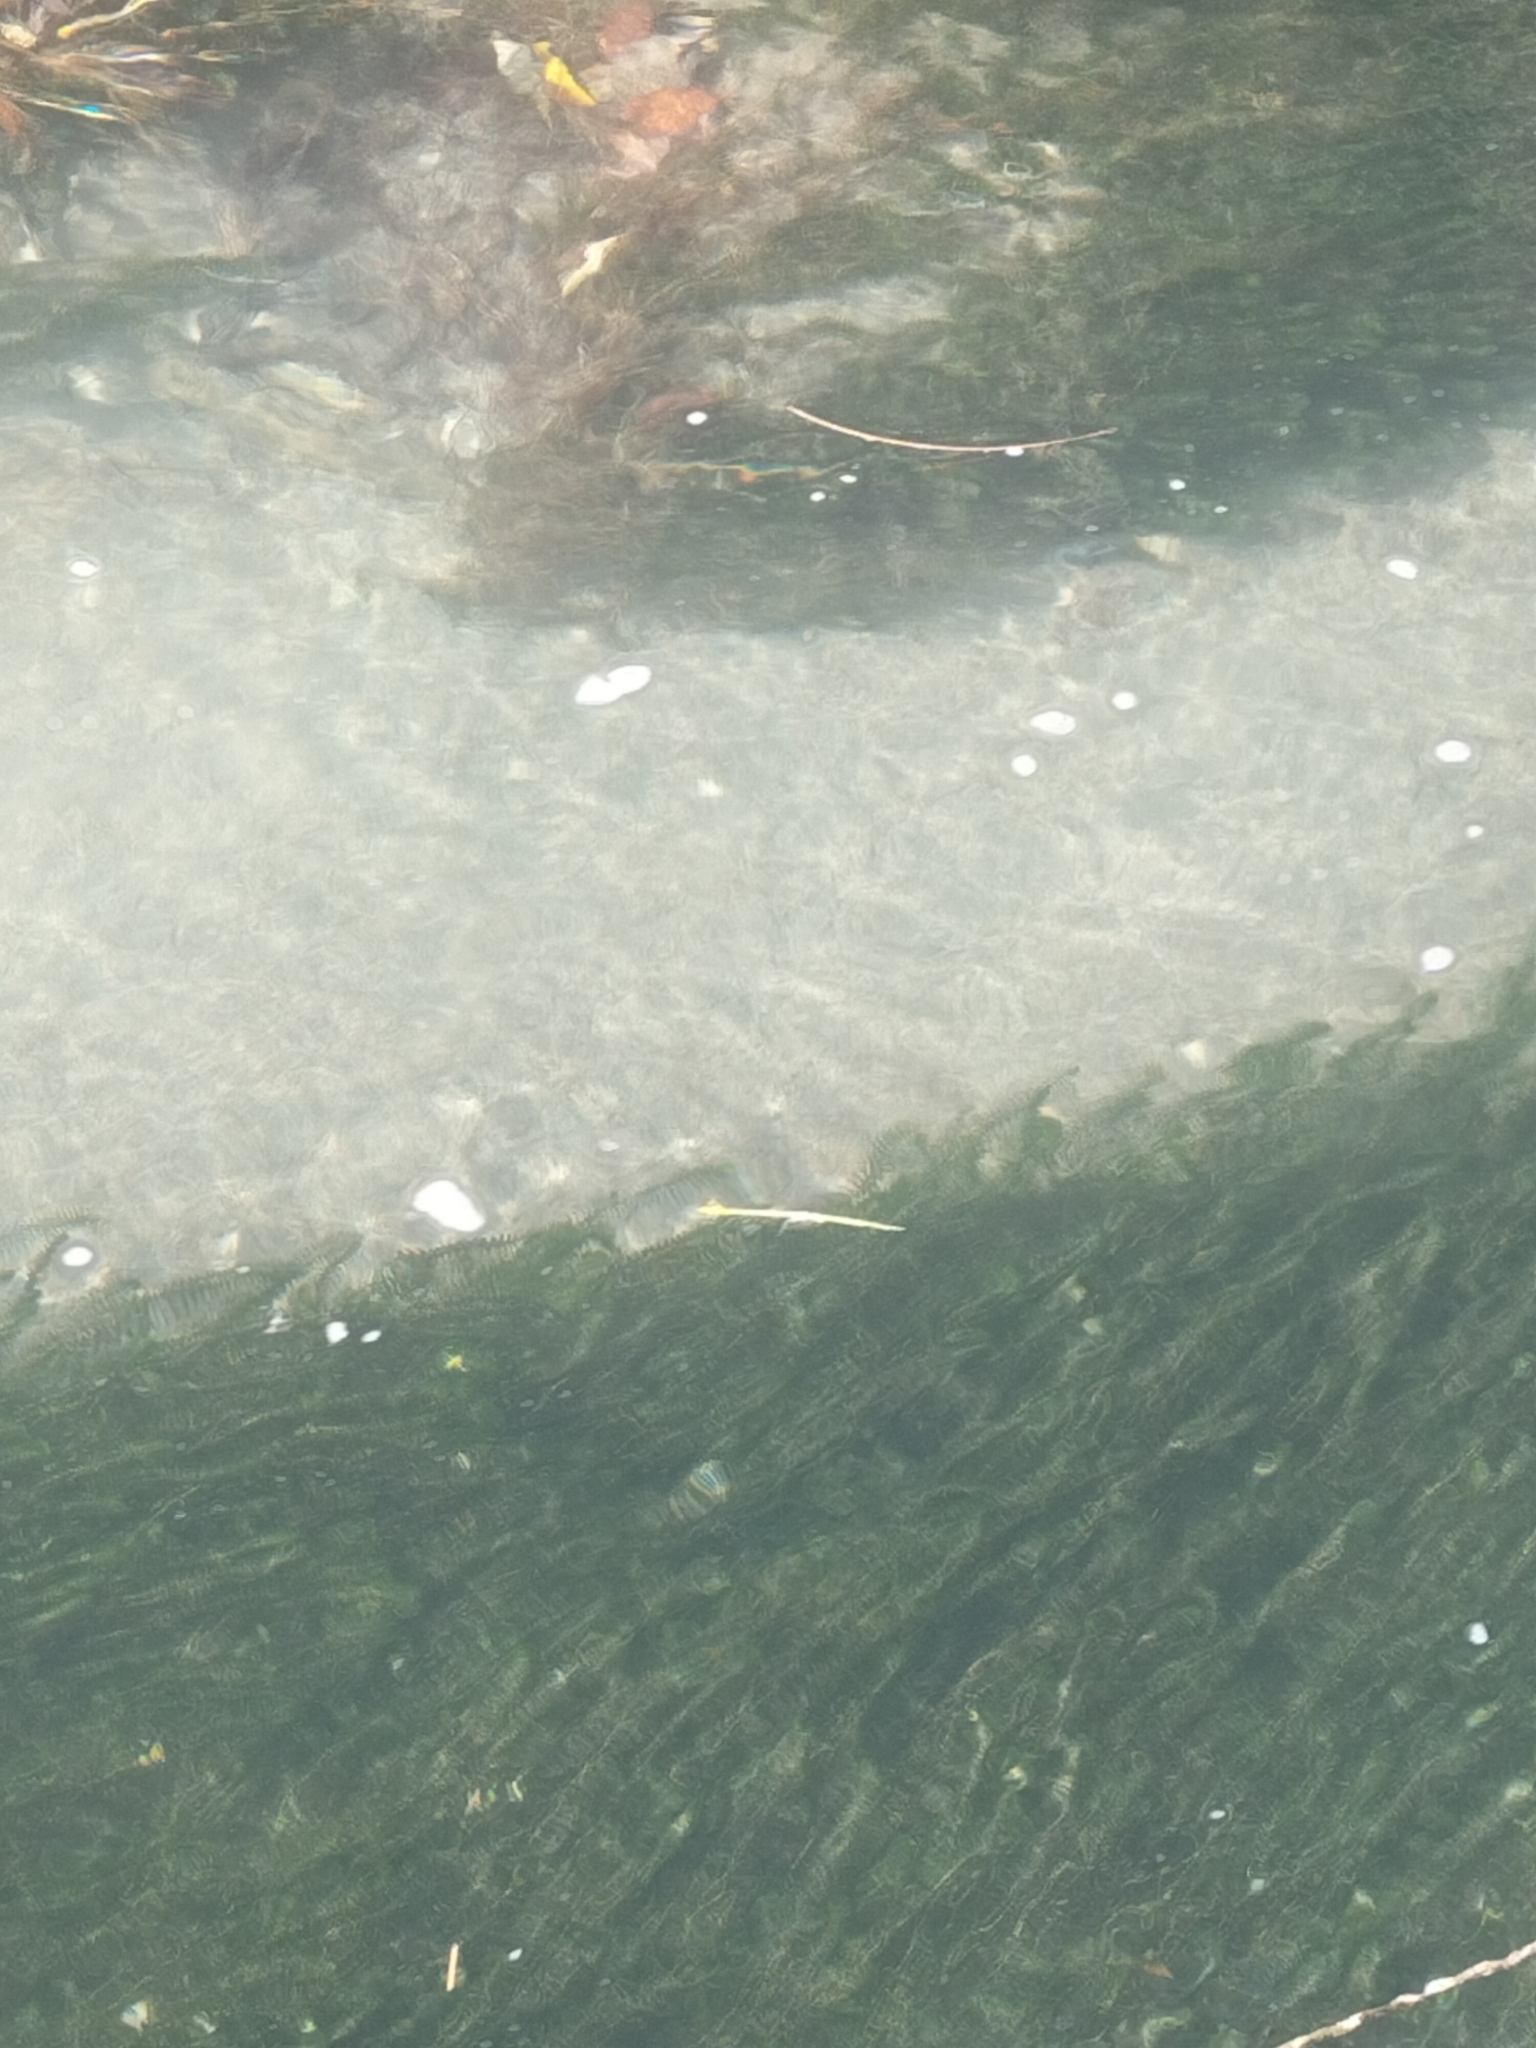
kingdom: Plantae
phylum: Tracheophyta
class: Liliopsida
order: Alismatales
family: Hydrocharitaceae
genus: Elodea
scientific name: Elodea canadensis
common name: Canadian waterweed
